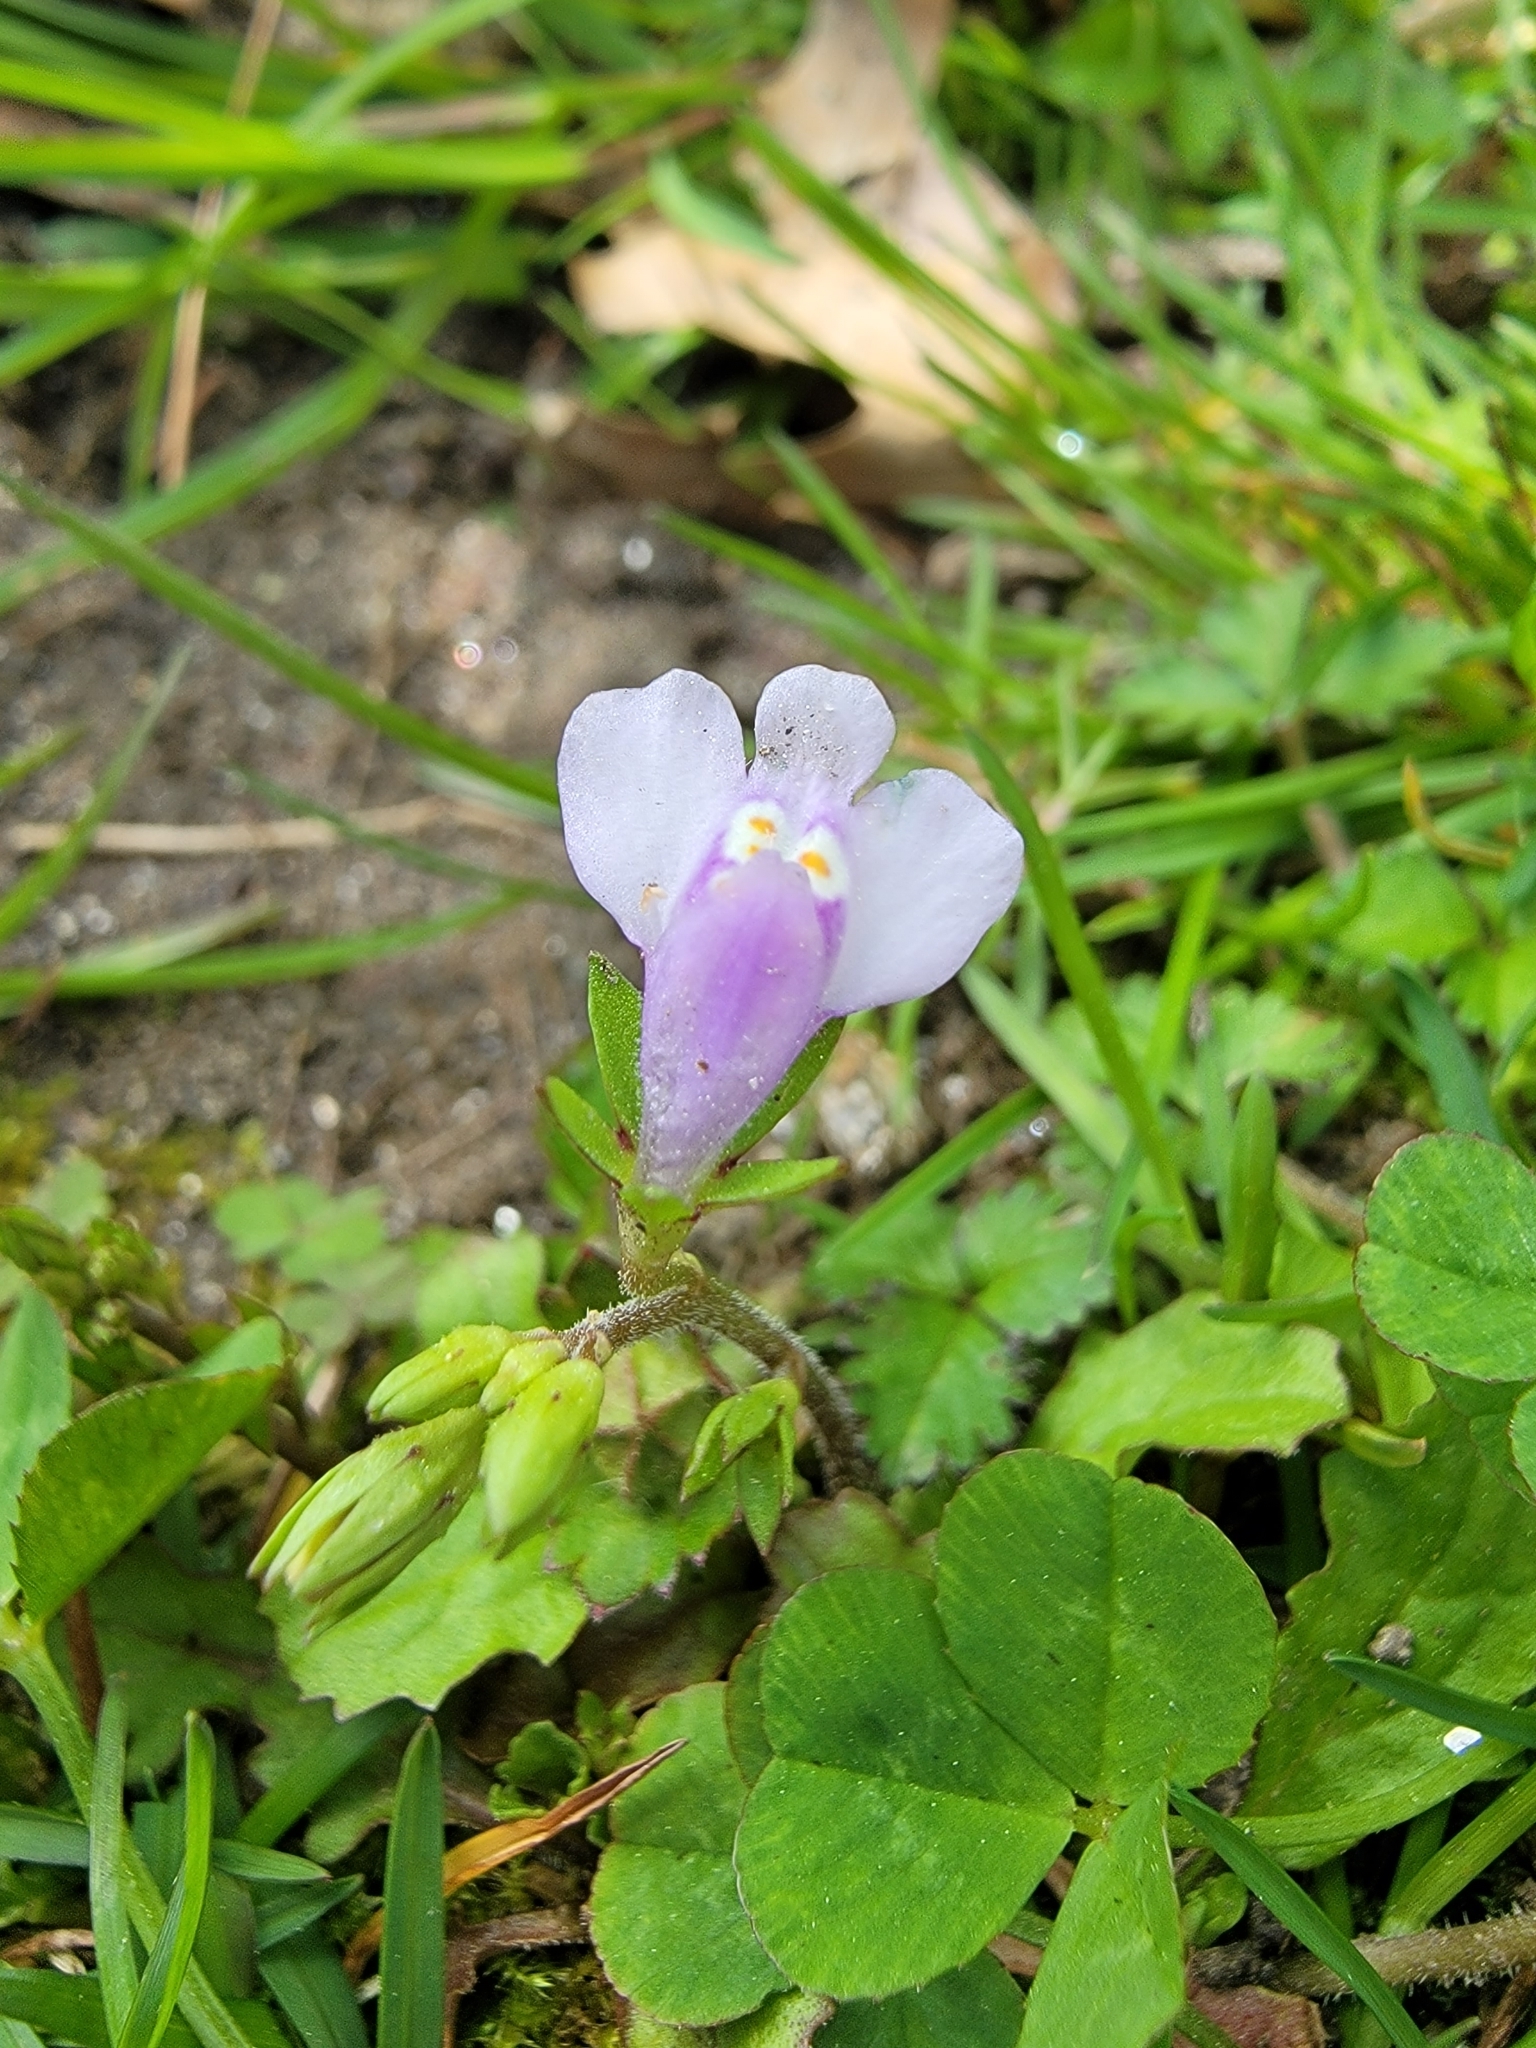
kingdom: Plantae
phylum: Tracheophyta
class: Magnoliopsida
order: Lamiales
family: Mazaceae
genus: Mazus
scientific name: Mazus pumilus
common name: Japanese mazus
